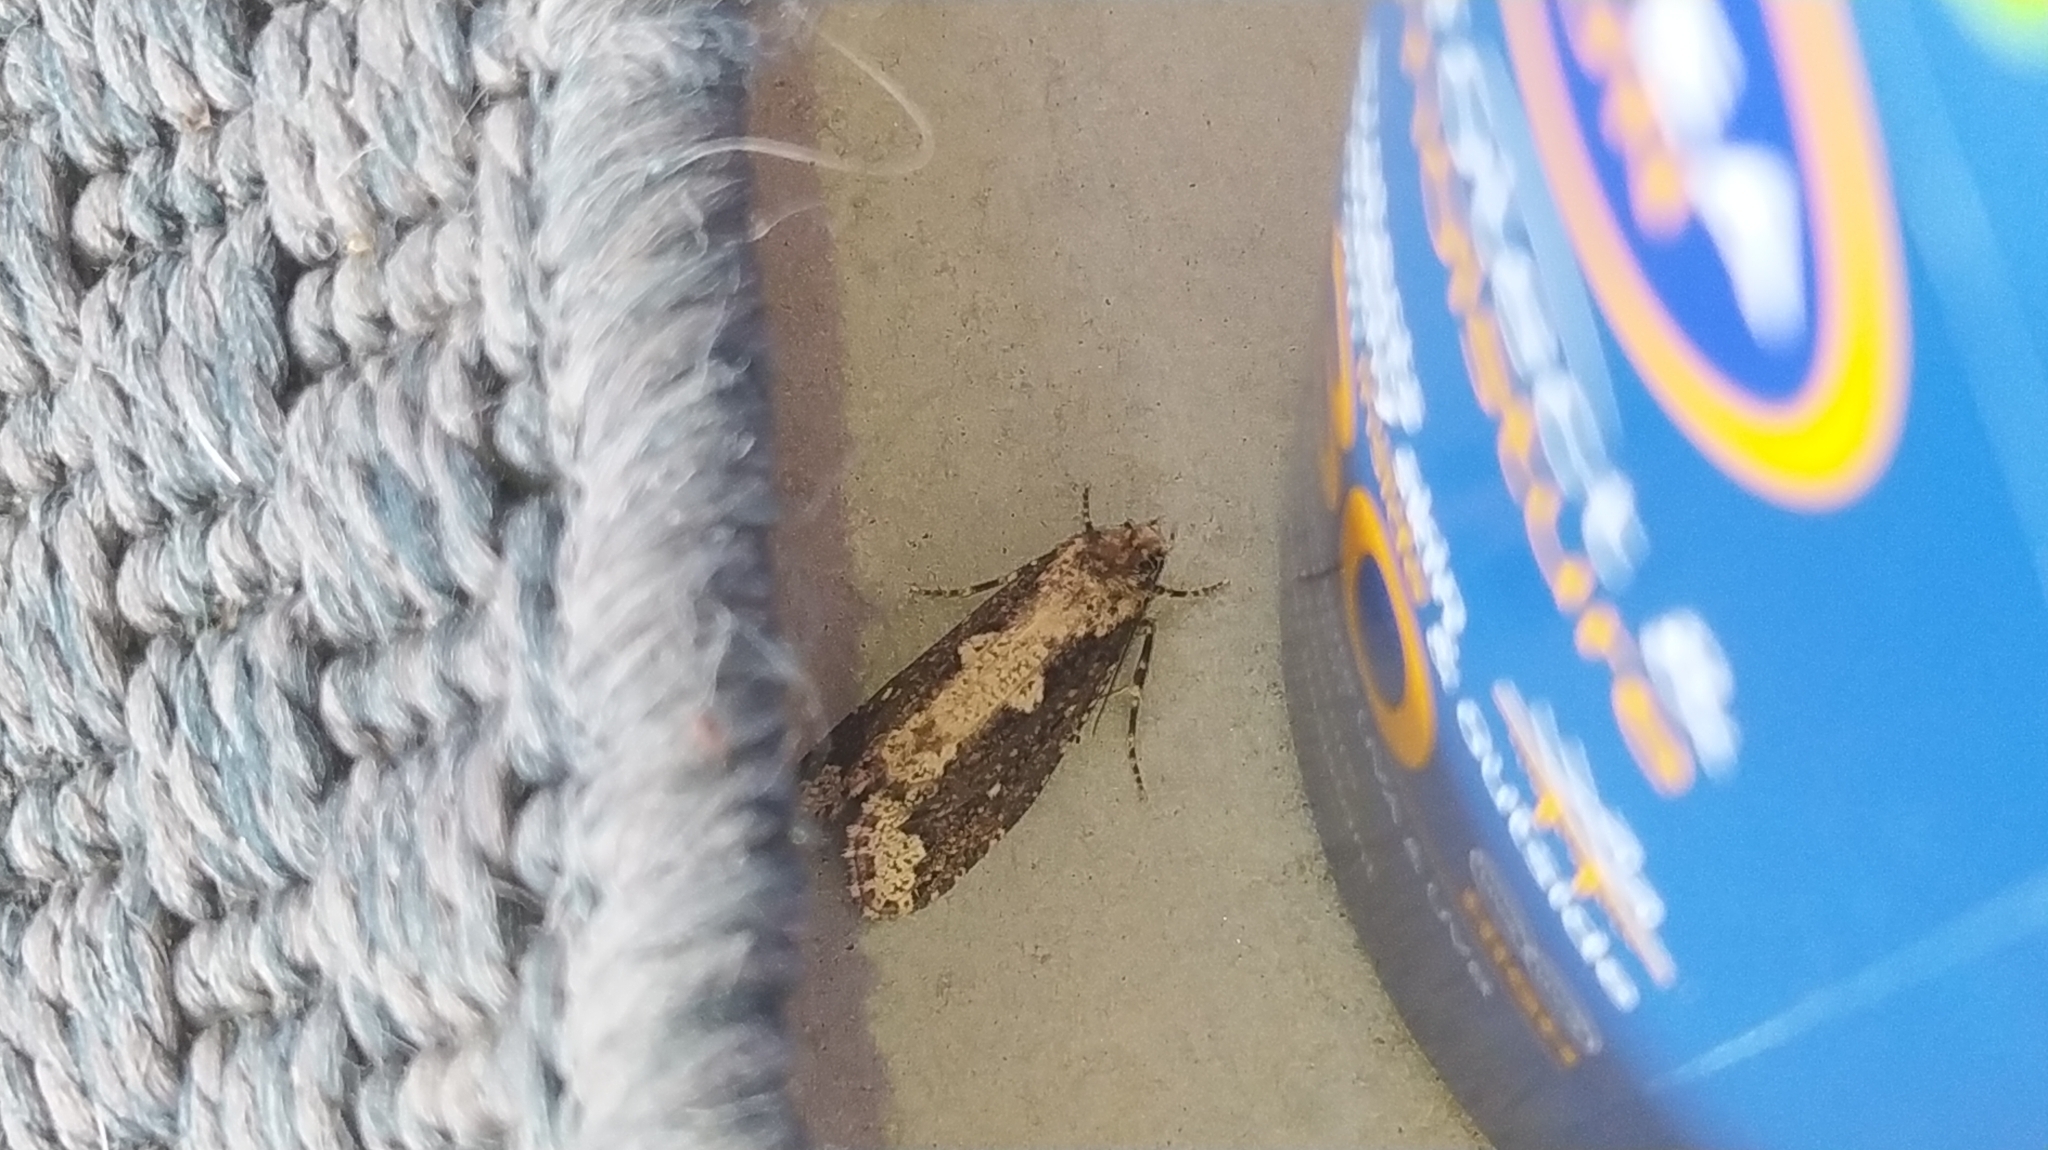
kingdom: Animalia
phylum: Arthropoda
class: Insecta
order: Lepidoptera
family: Tineidae
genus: Scardia
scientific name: Scardia boletella
